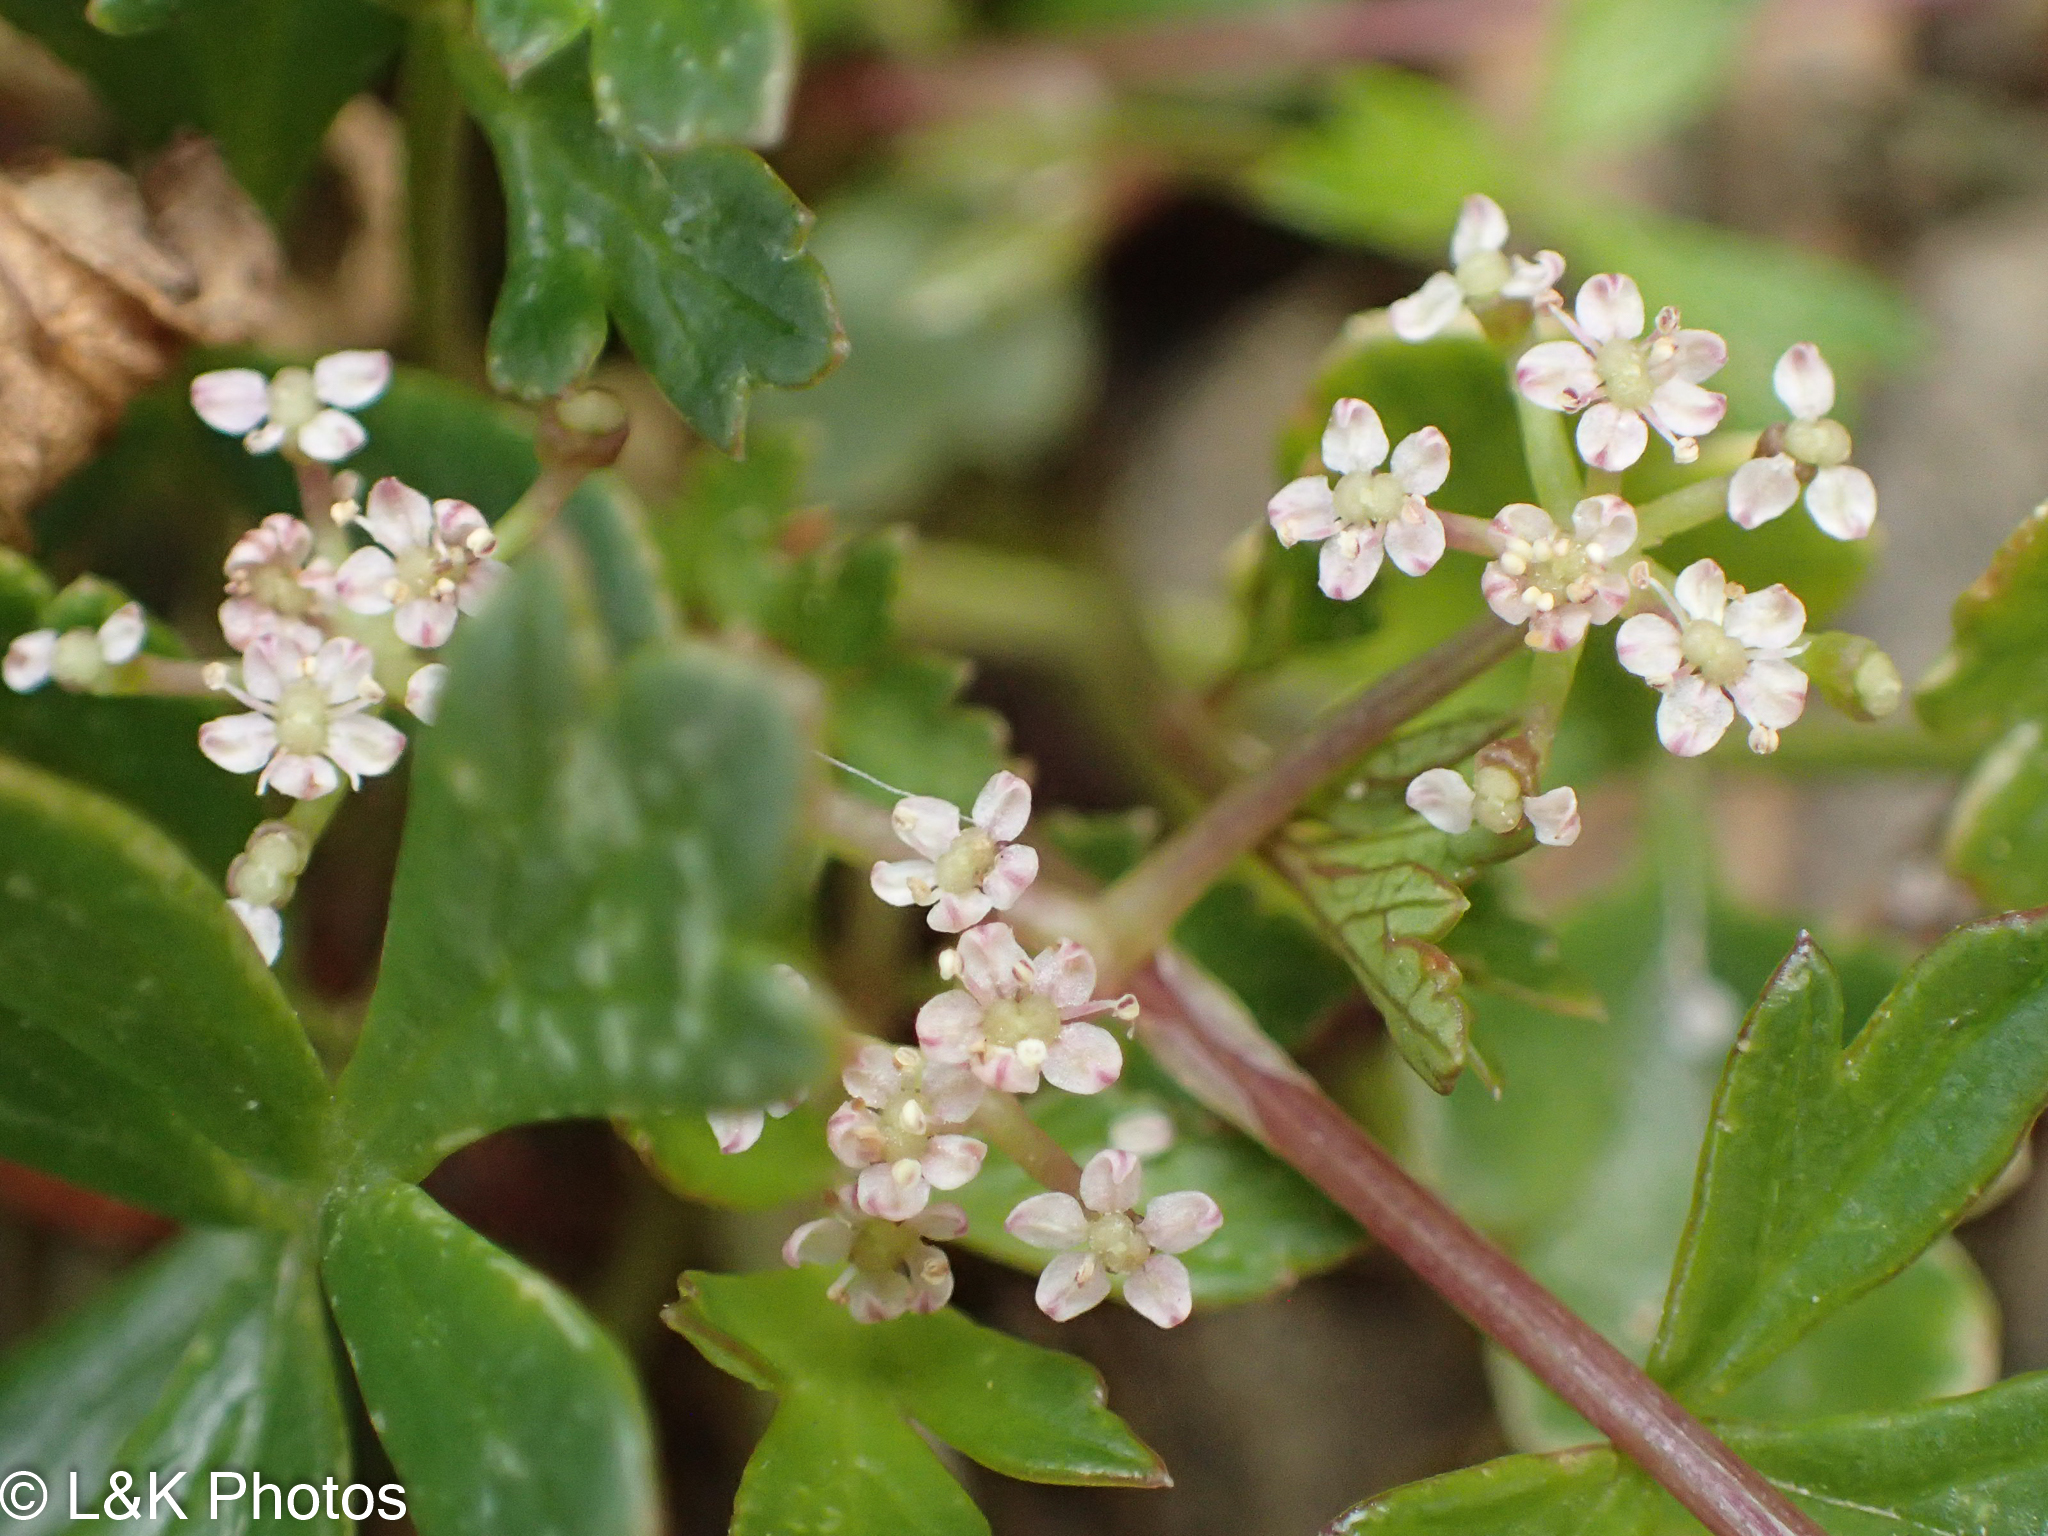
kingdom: Plantae
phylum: Tracheophyta
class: Magnoliopsida
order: Apiales
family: Apiaceae
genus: Apium
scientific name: Apium prostratum
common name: Prostrate marshwort
